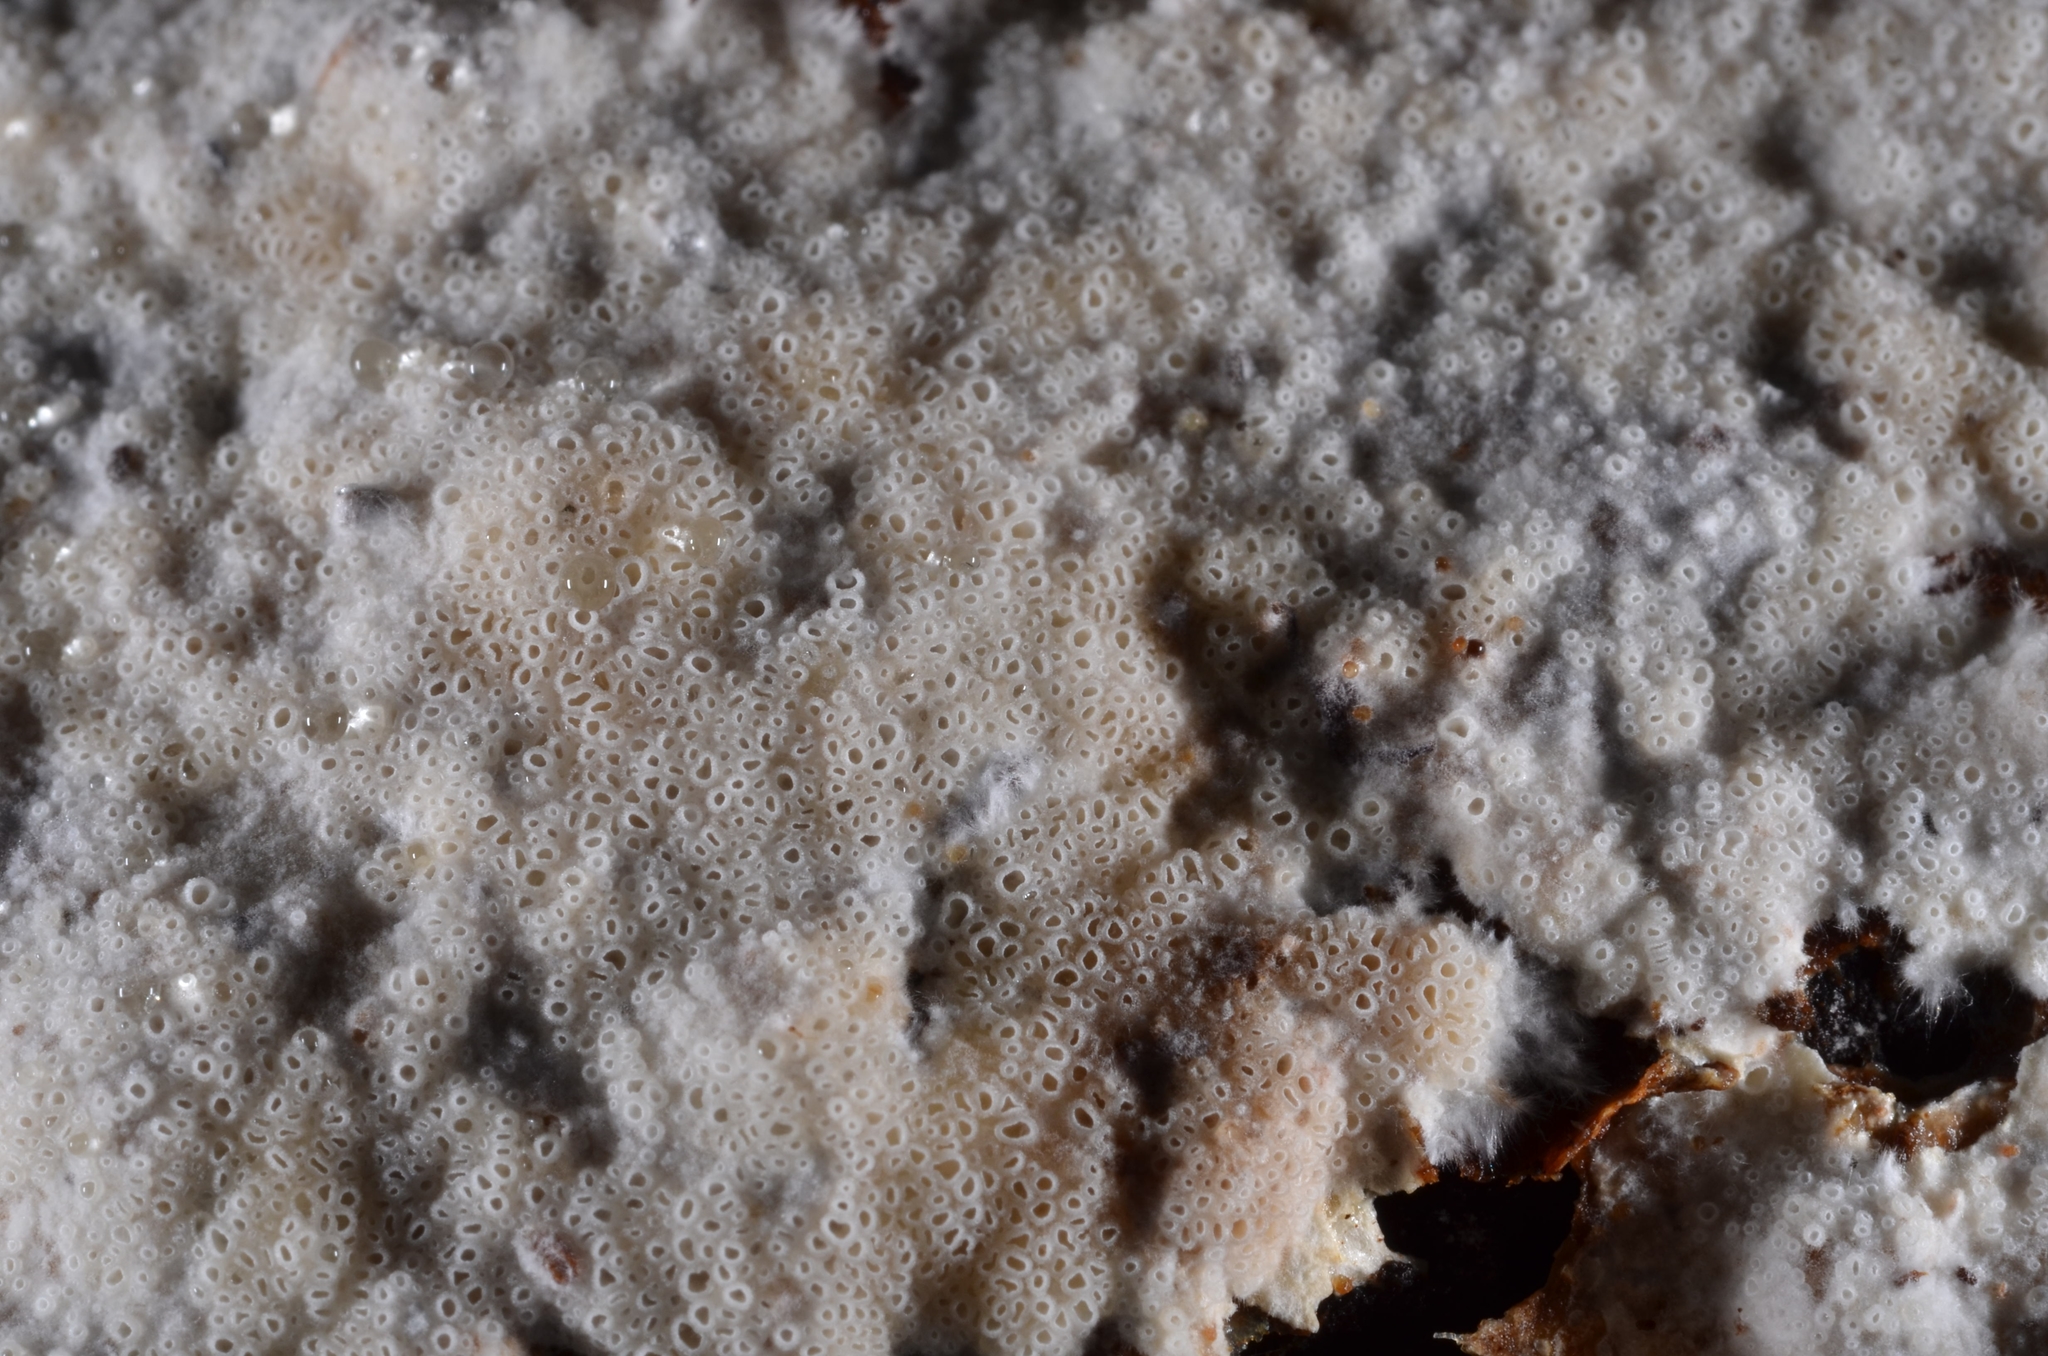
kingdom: Fungi
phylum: Basidiomycota
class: Agaricomycetes
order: Agaricales
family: Porotheleaceae
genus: Porotheleum
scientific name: Porotheleum fimbriatum
